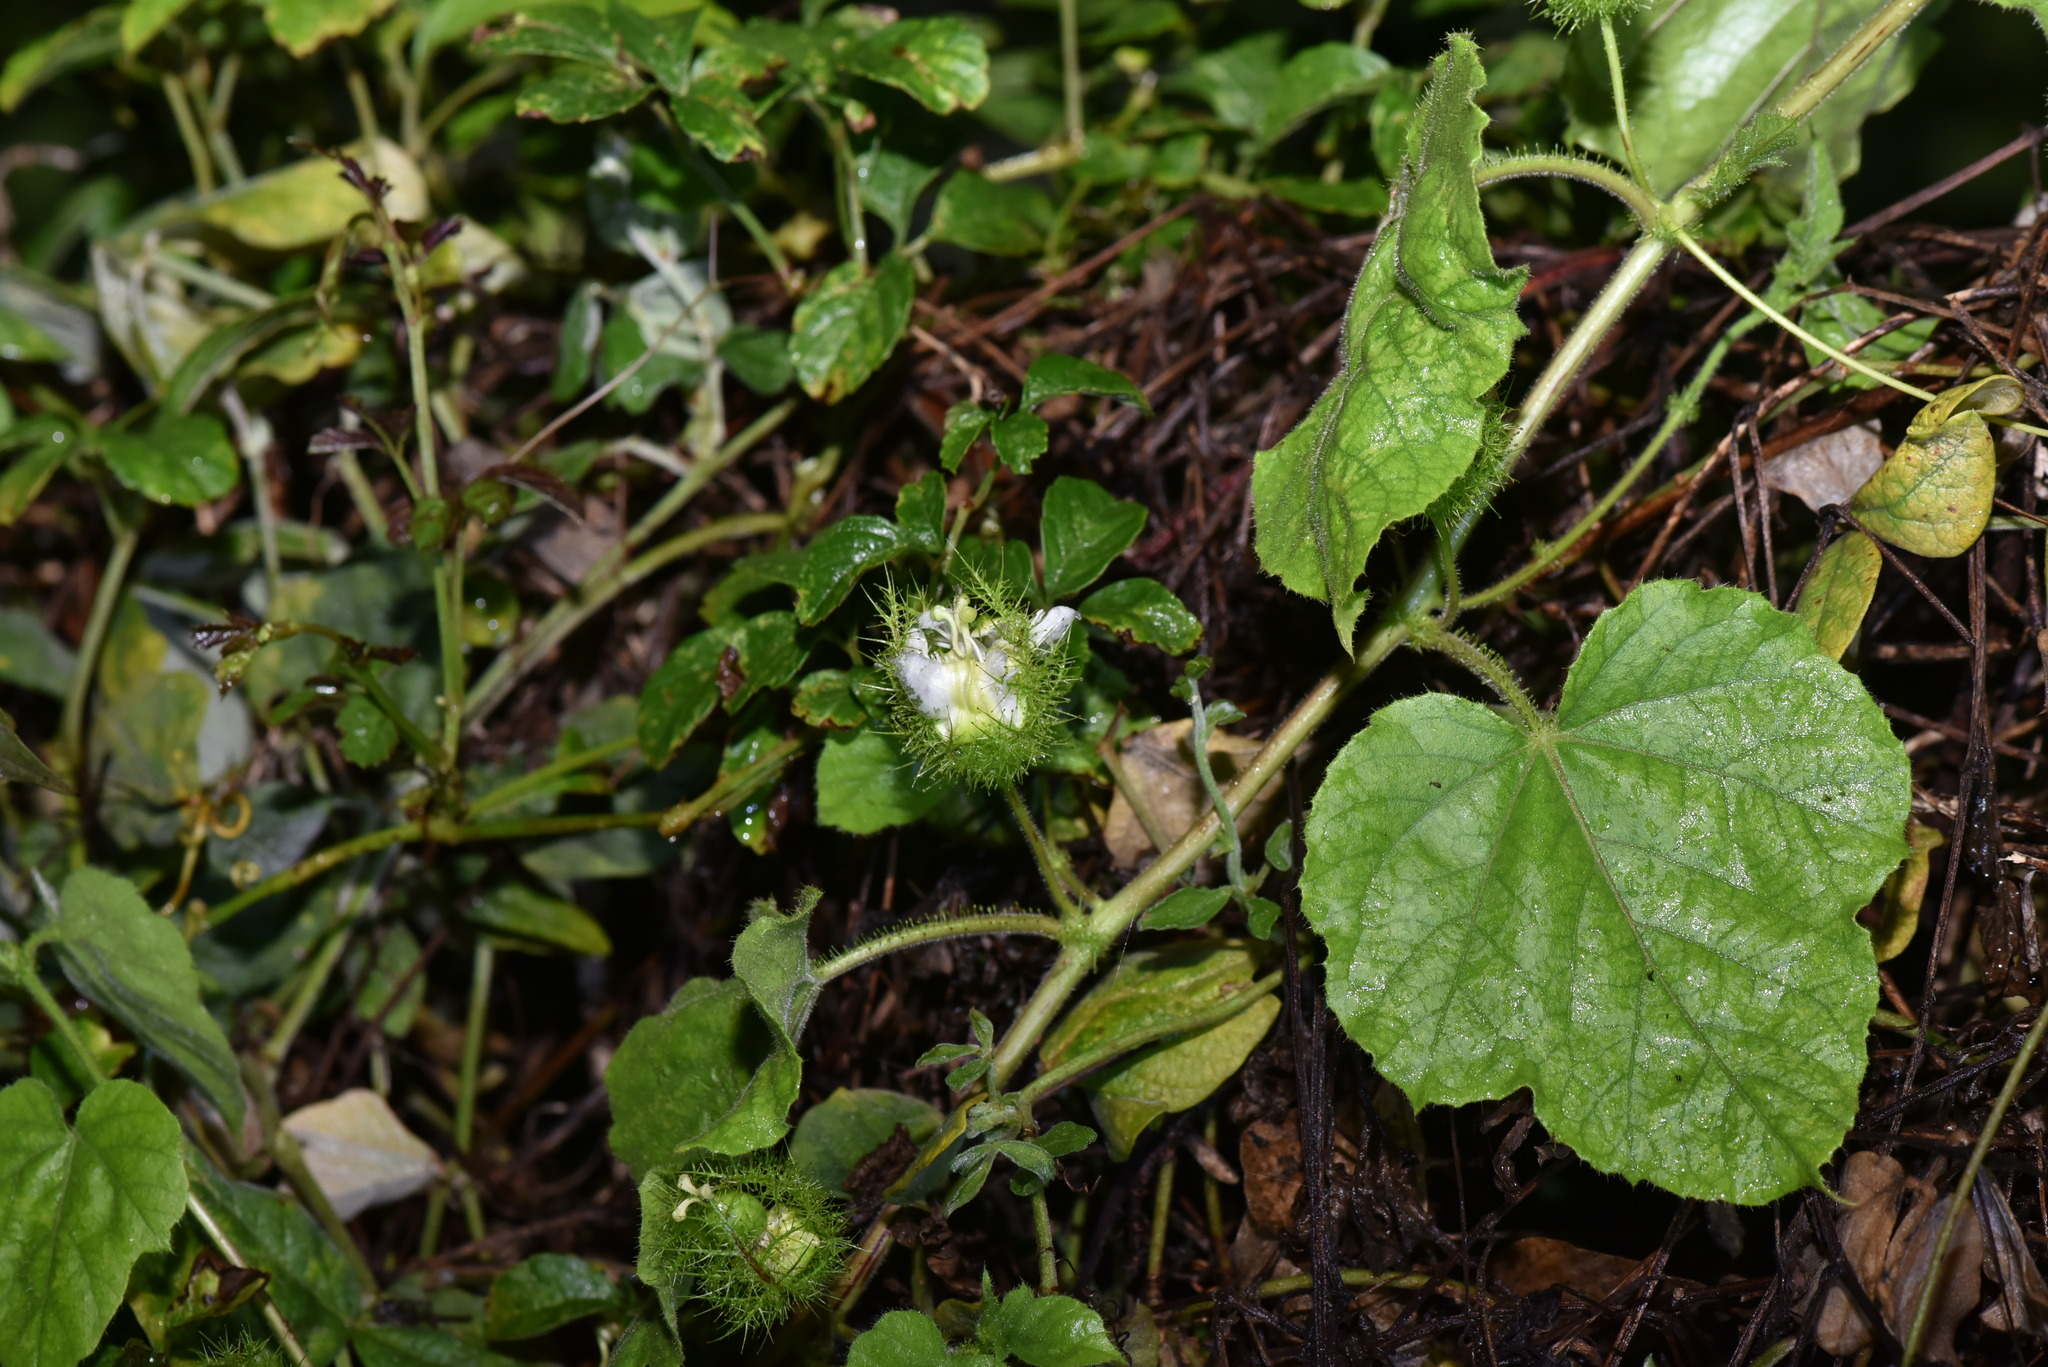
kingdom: Plantae
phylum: Tracheophyta
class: Magnoliopsida
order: Malpighiales
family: Passifloraceae
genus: Passiflora
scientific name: Passiflora vesicaria
